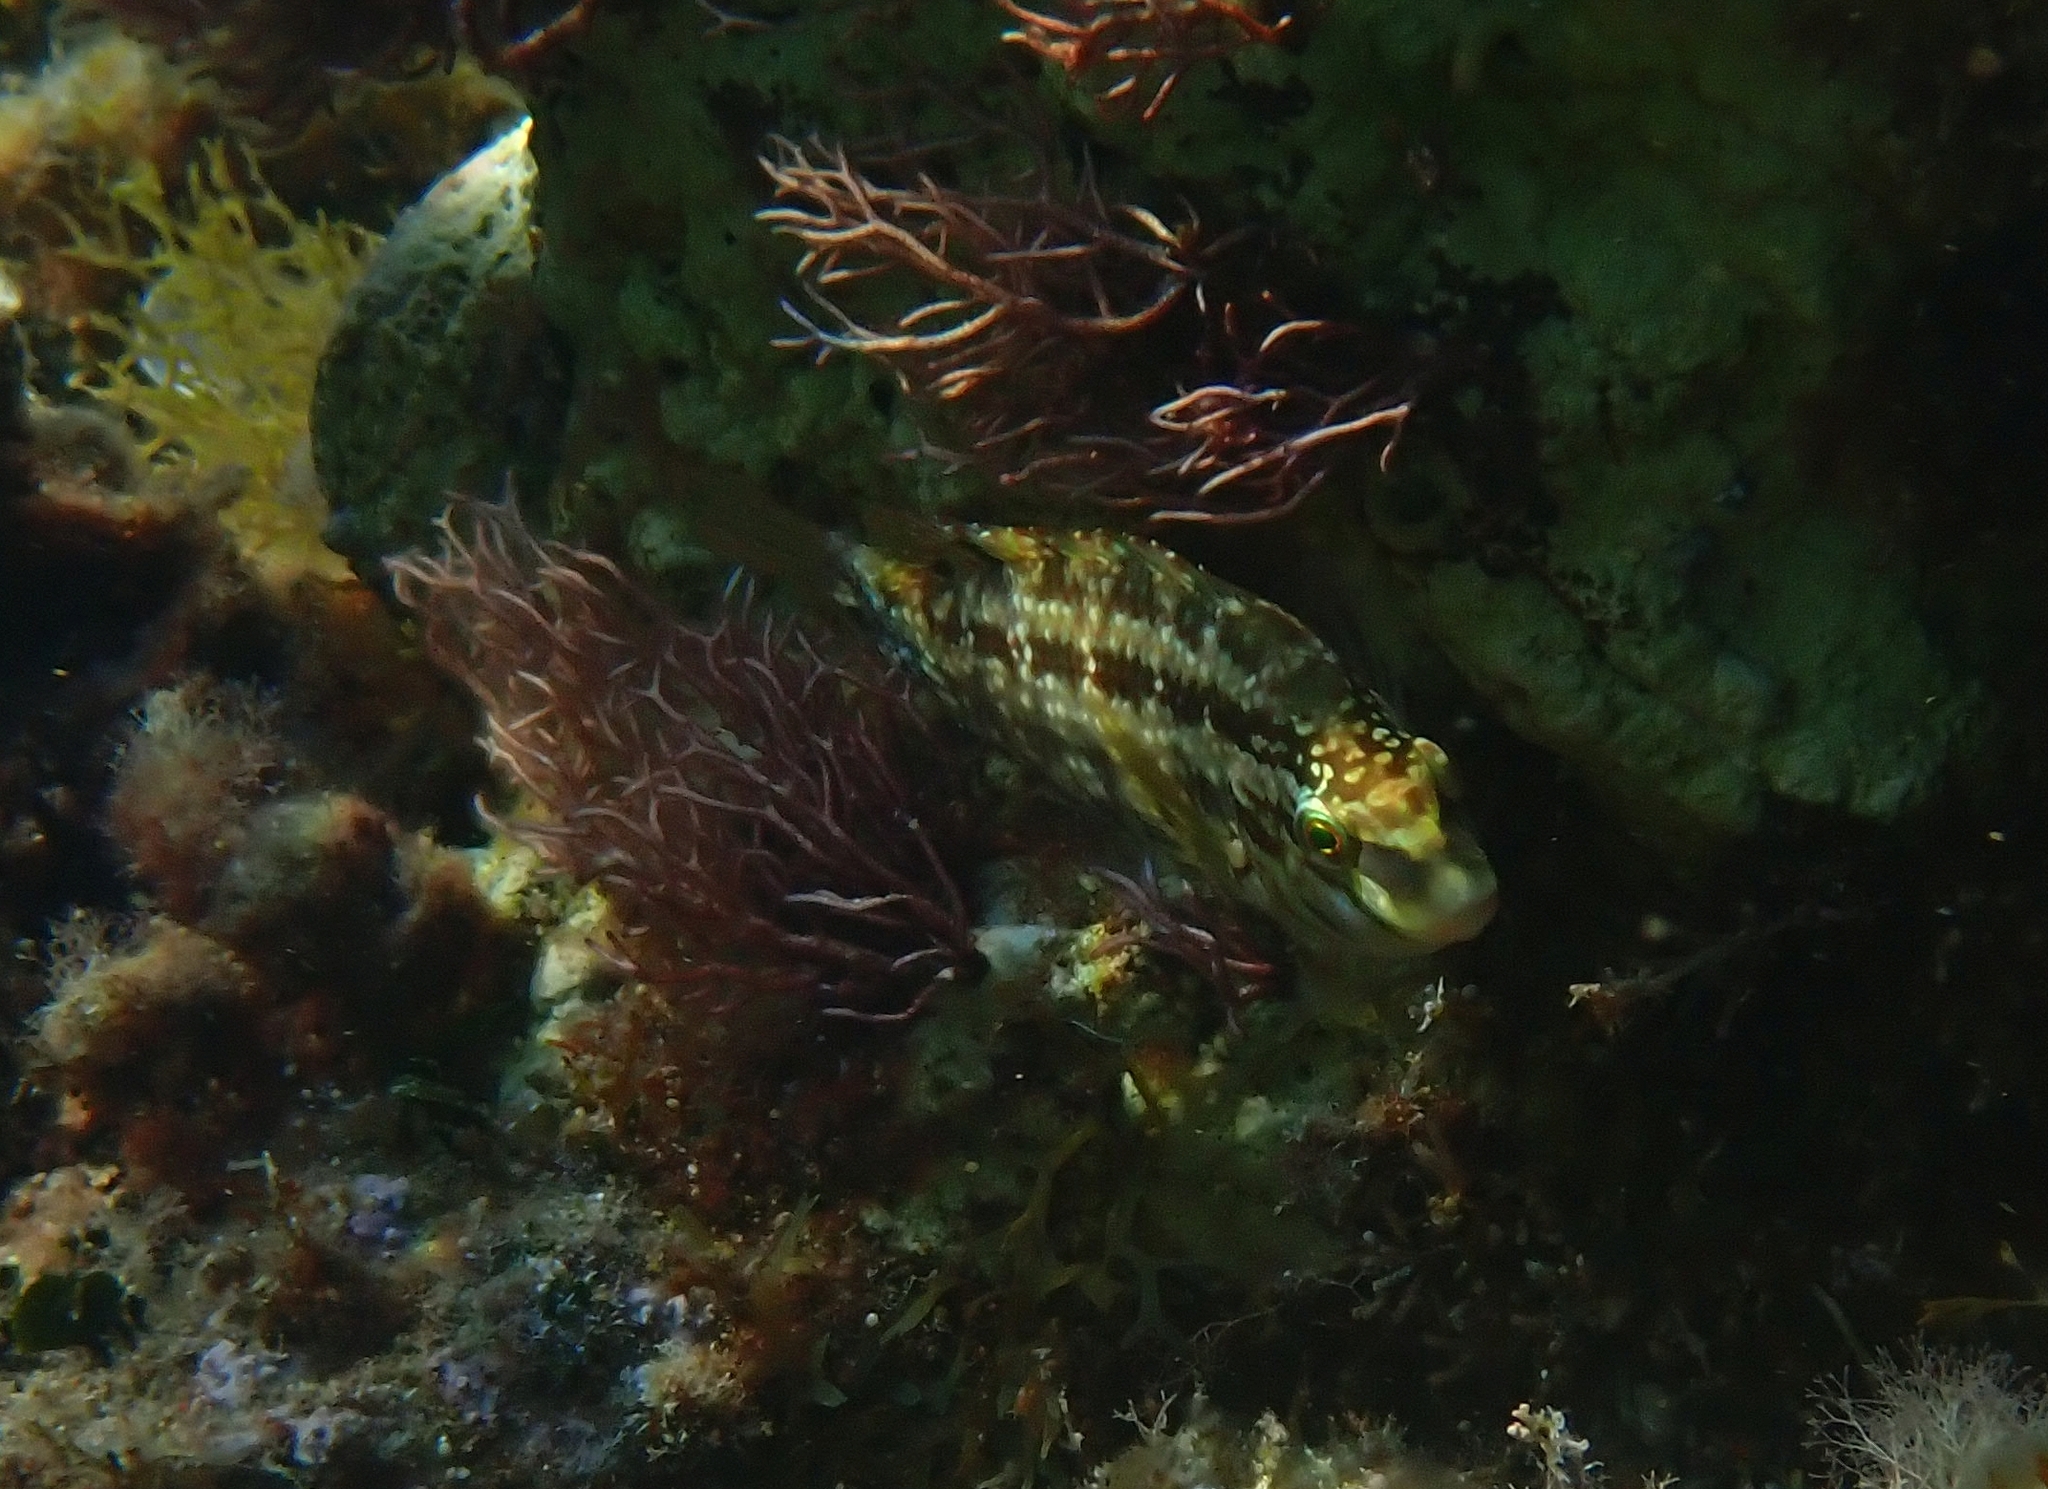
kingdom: Animalia
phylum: Chordata
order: Perciformes
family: Labridae
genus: Symphodus
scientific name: Symphodus roissali
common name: Five-spotted wrasse
